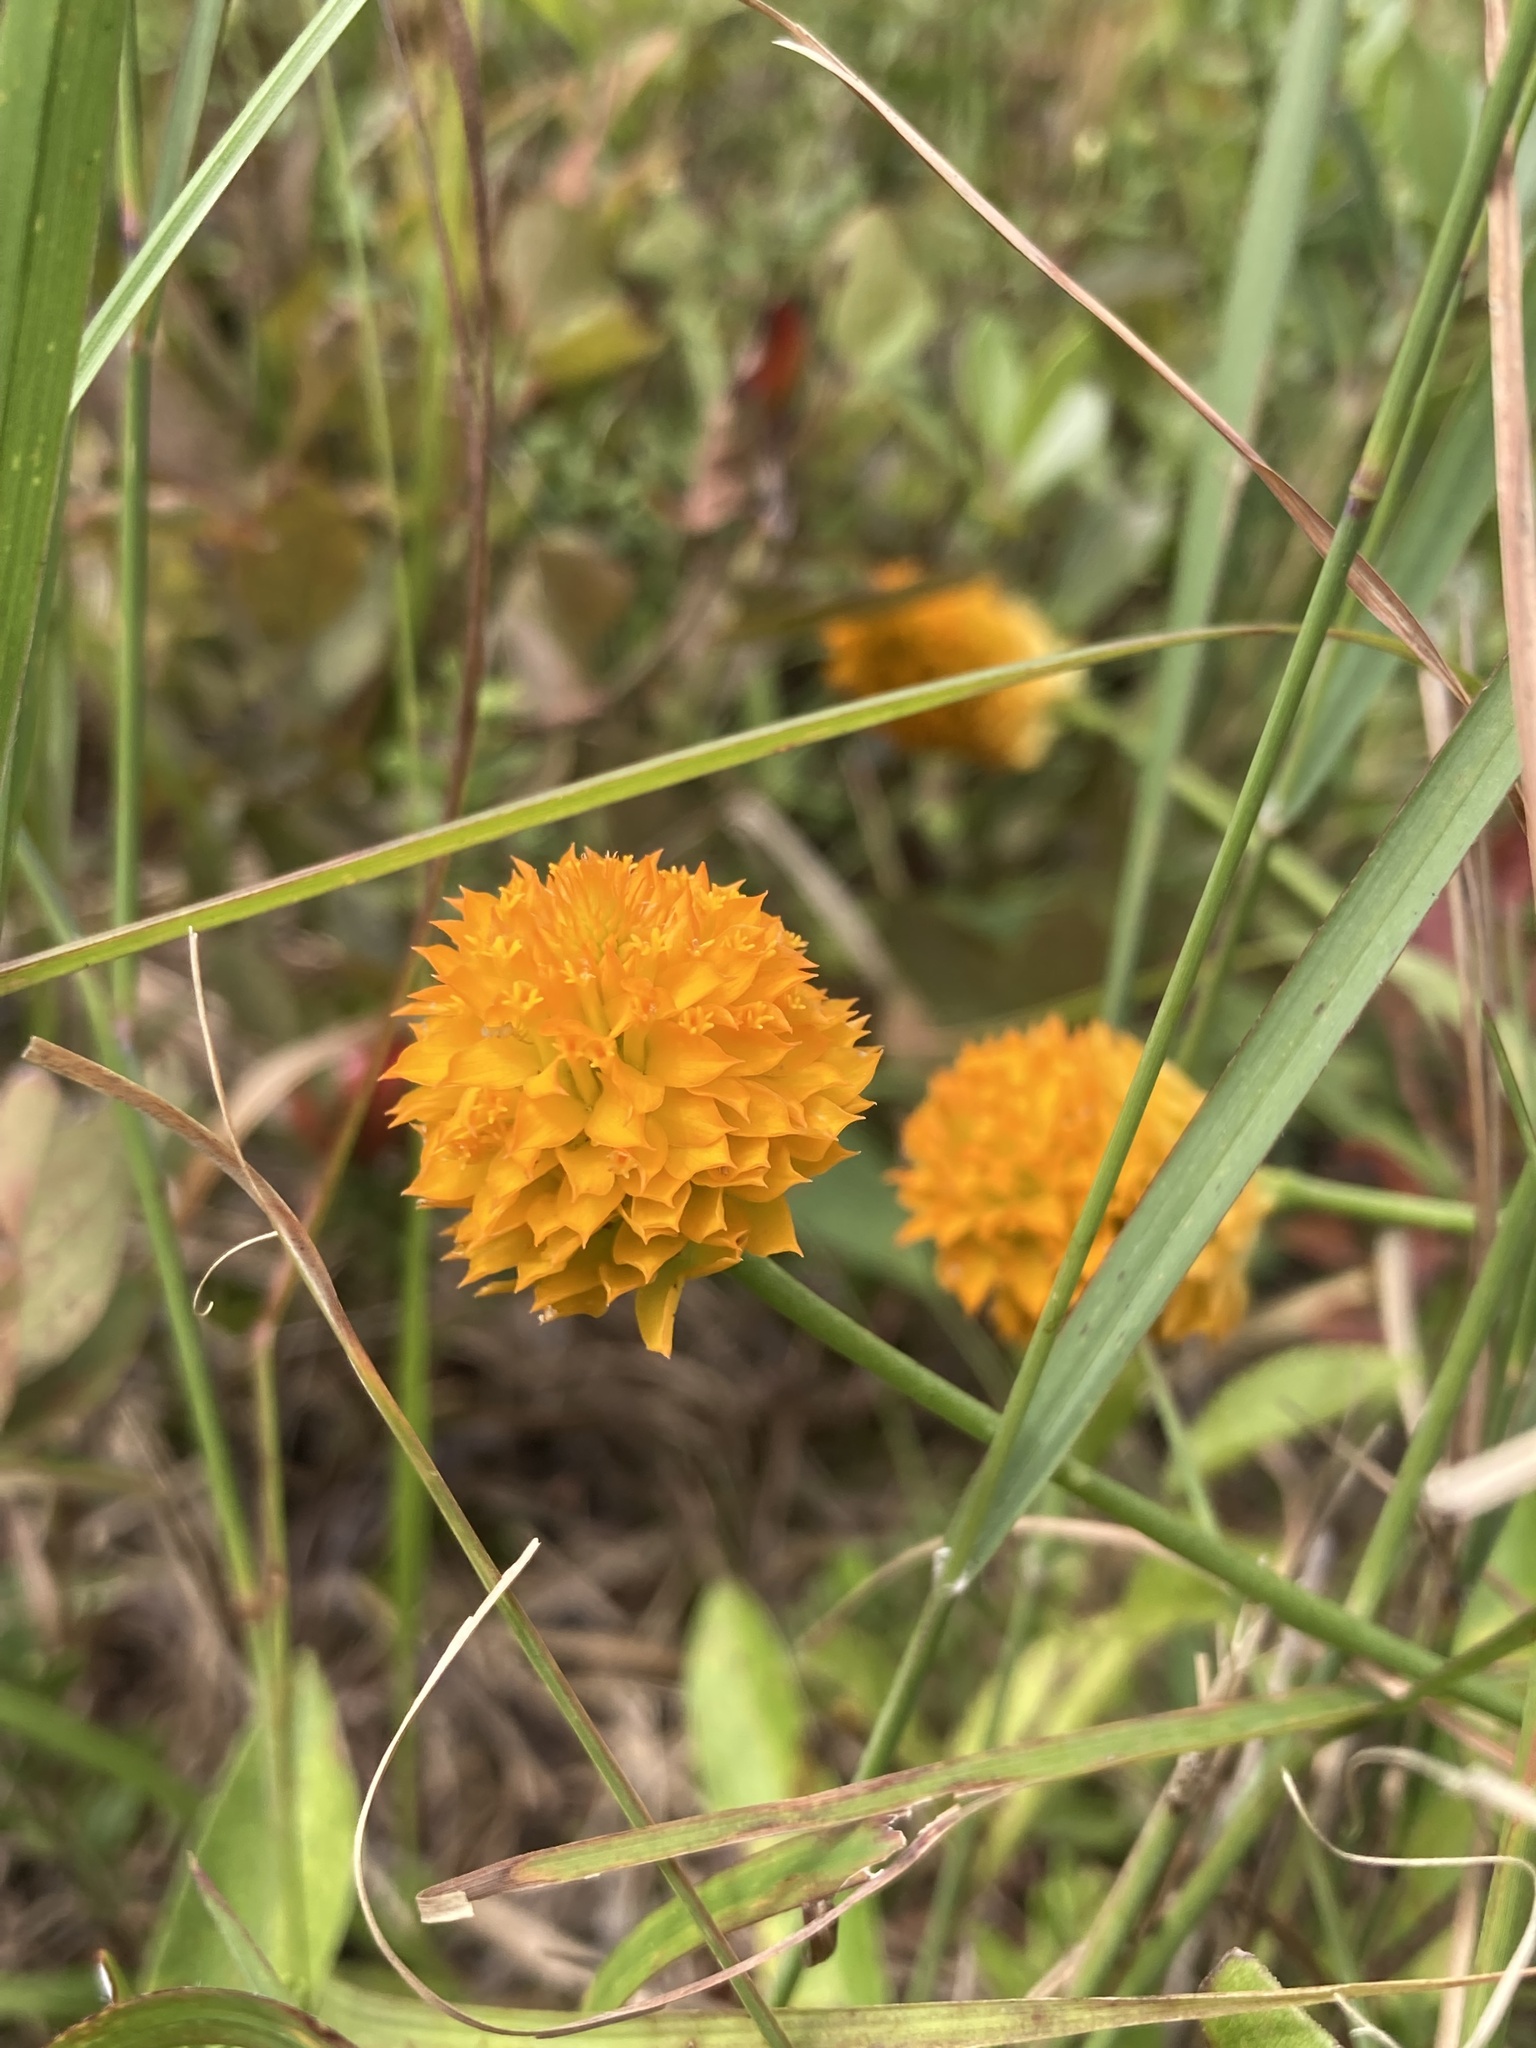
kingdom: Plantae
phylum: Tracheophyta
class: Magnoliopsida
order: Fabales
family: Polygalaceae
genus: Polygala
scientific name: Polygala lutea
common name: Orange milkwort
